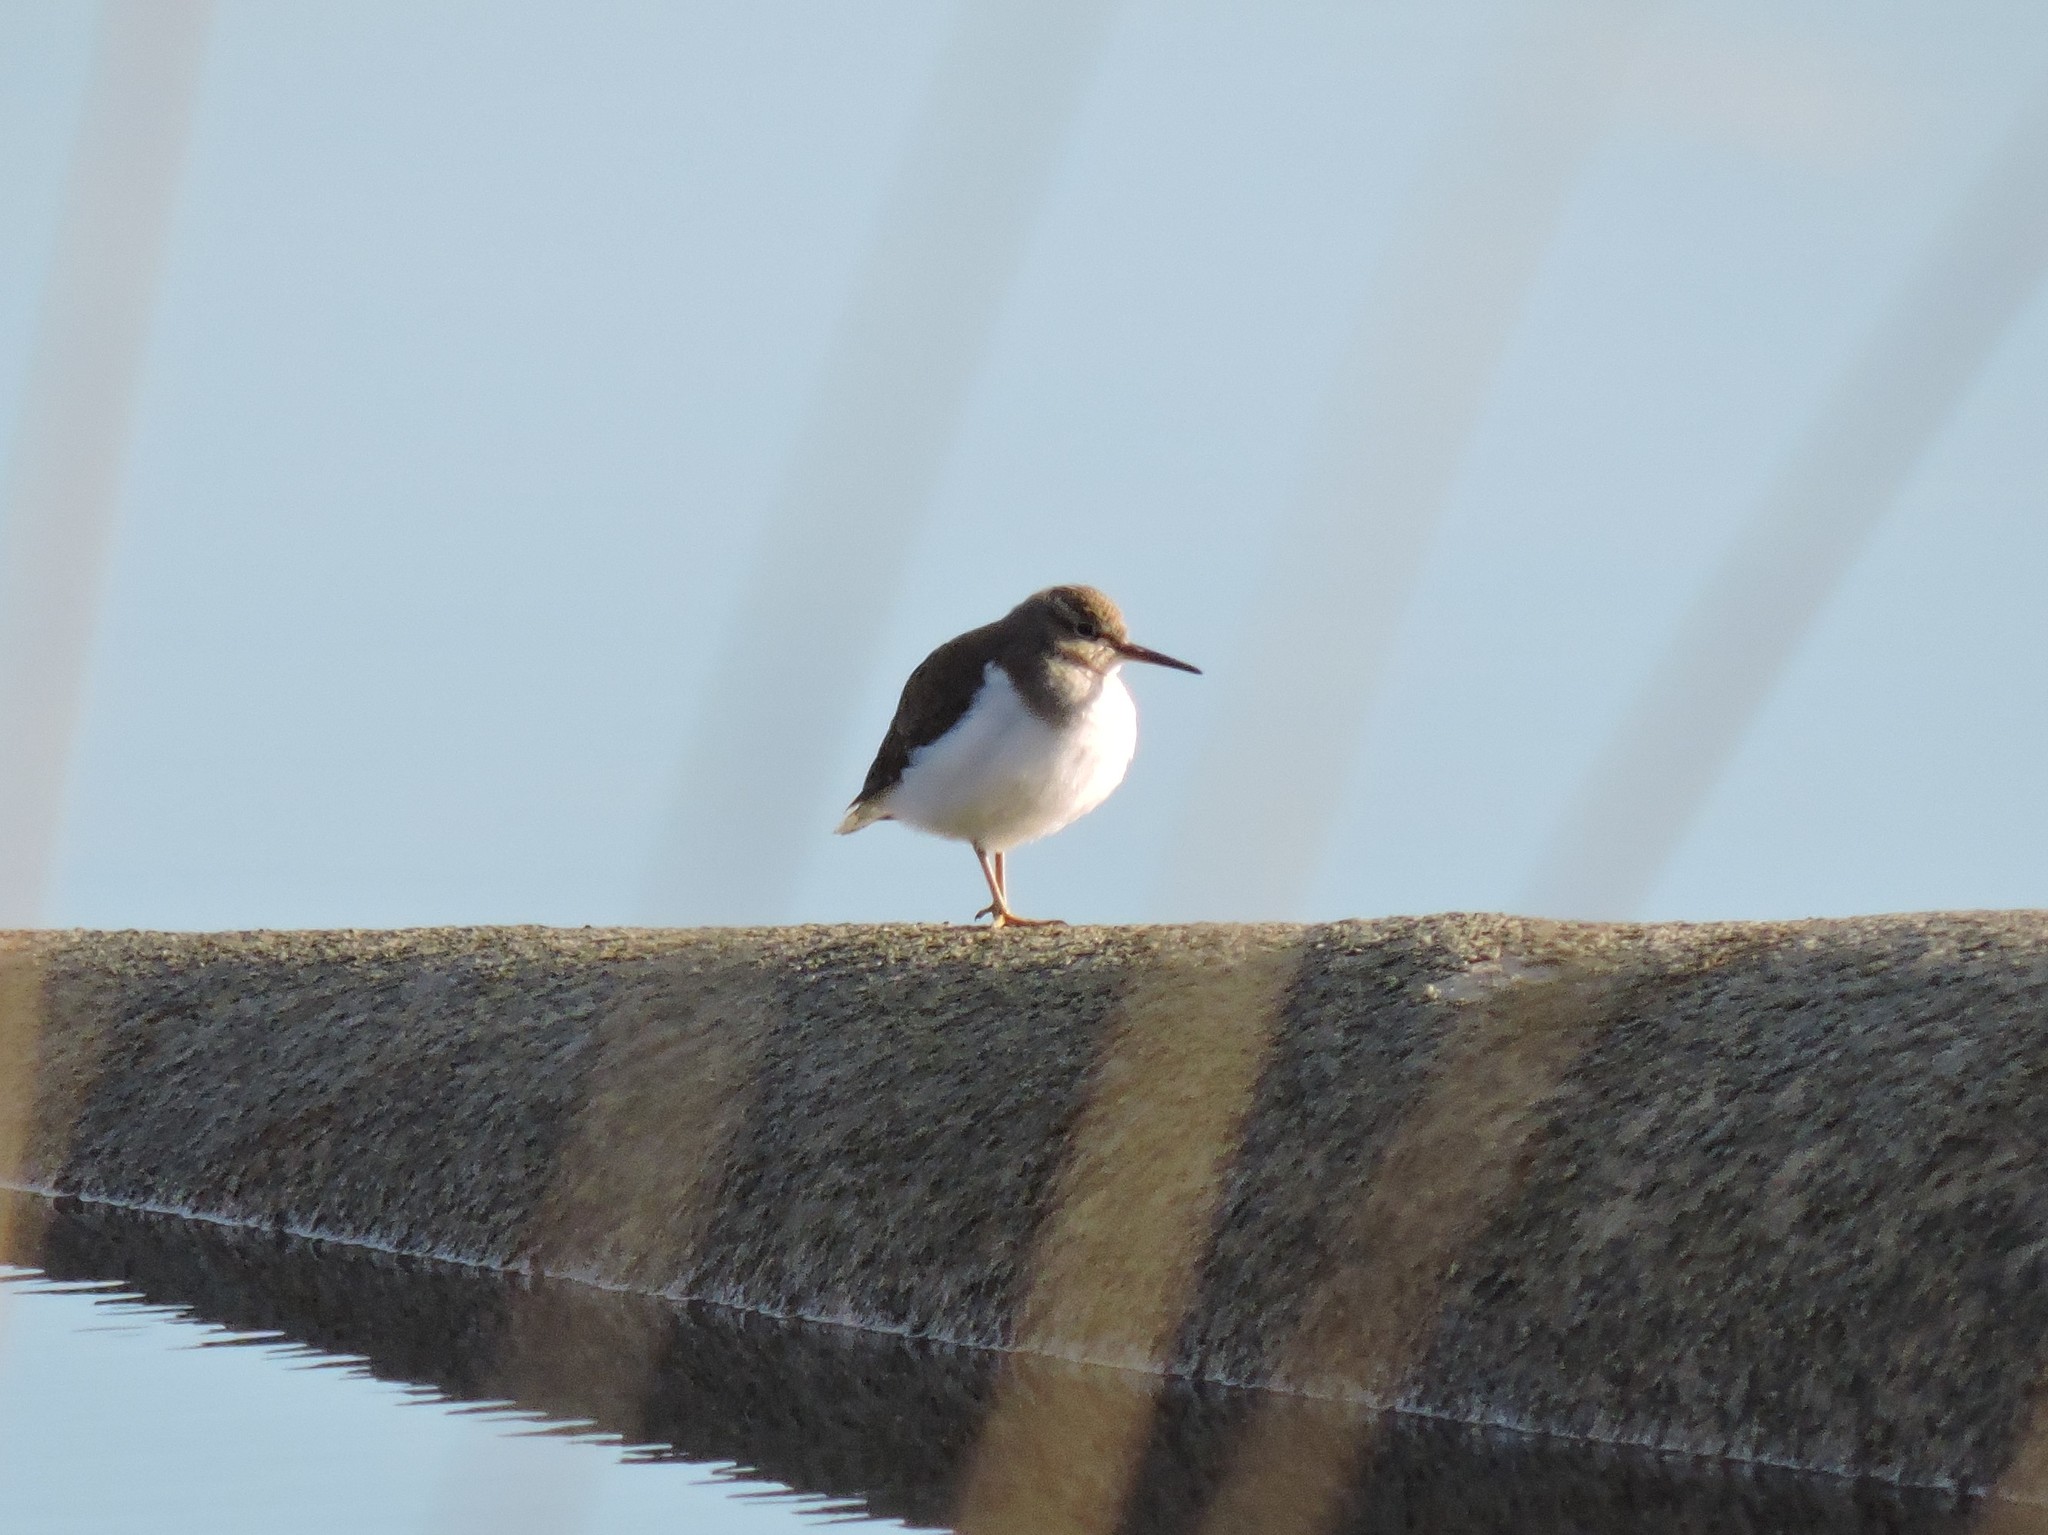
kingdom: Animalia
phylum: Chordata
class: Aves
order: Charadriiformes
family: Scolopacidae
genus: Actitis
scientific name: Actitis hypoleucos
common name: Common sandpiper
